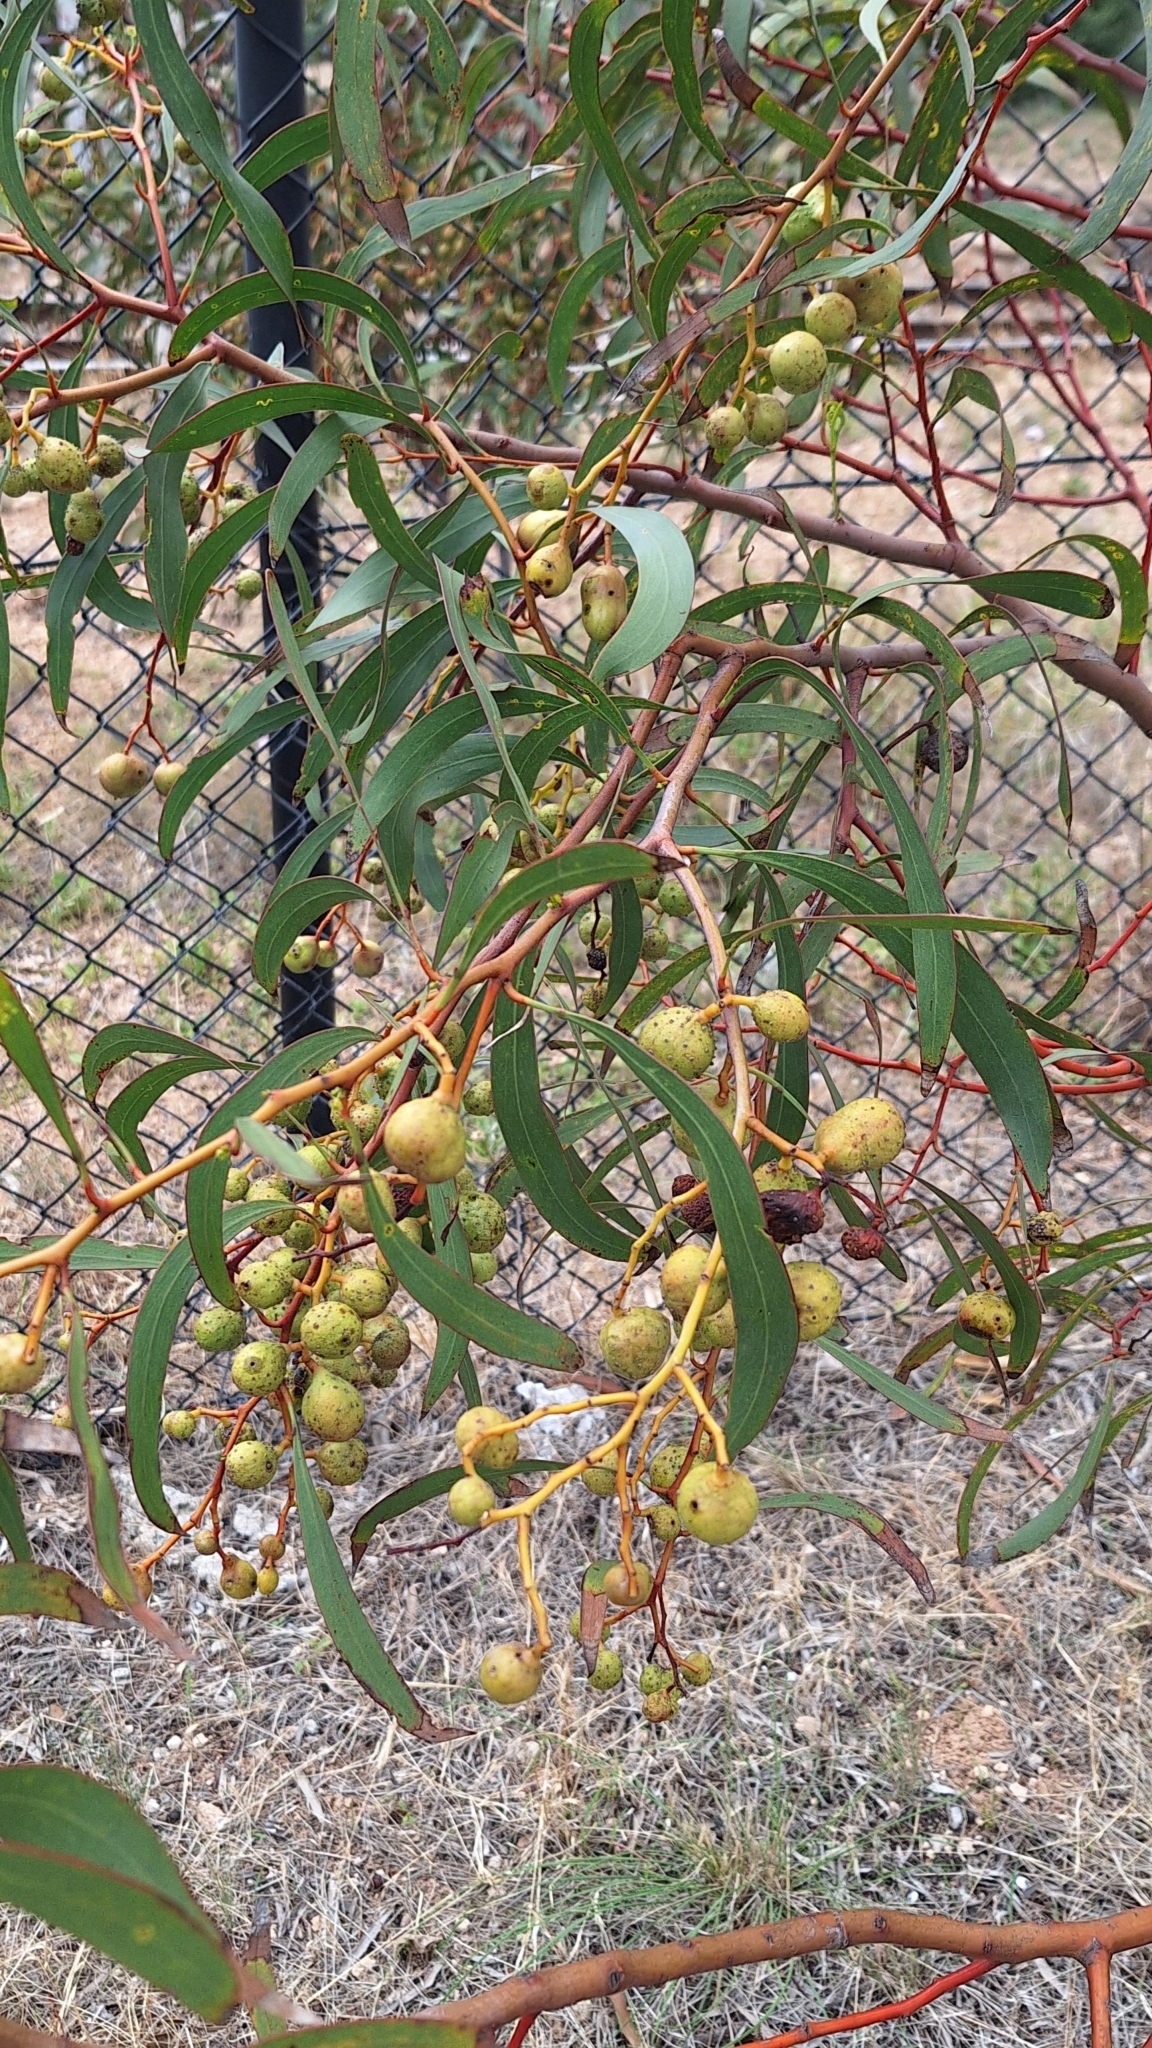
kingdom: Plantae
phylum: Tracheophyta
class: Magnoliopsida
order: Fabales
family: Fabaceae
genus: Acacia
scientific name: Acacia pycnantha
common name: Golden wattle
